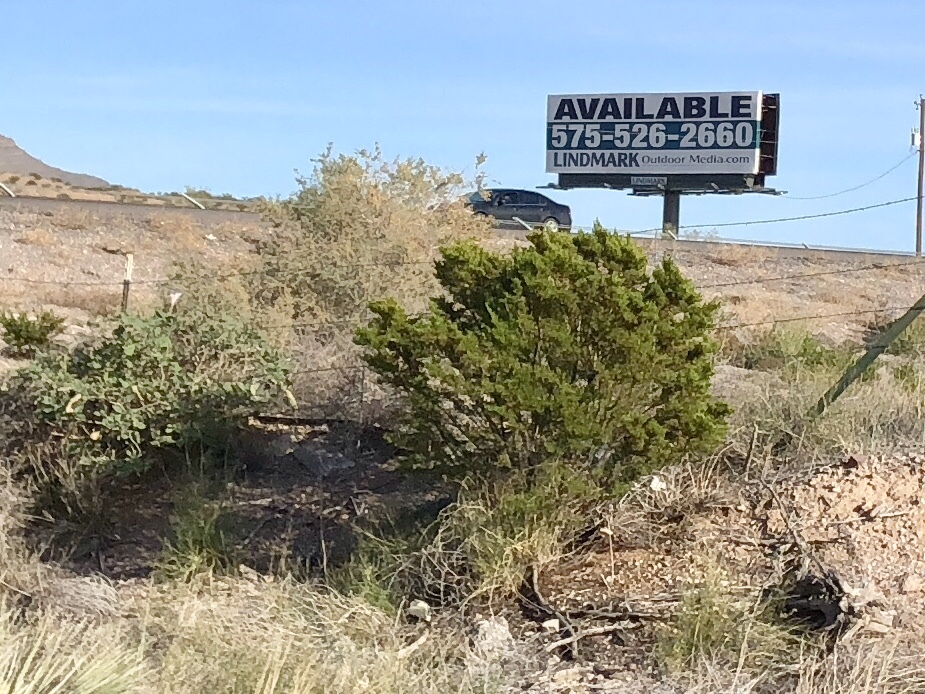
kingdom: Plantae
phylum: Tracheophyta
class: Magnoliopsida
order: Zygophyllales
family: Zygophyllaceae
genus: Larrea
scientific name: Larrea tridentata
